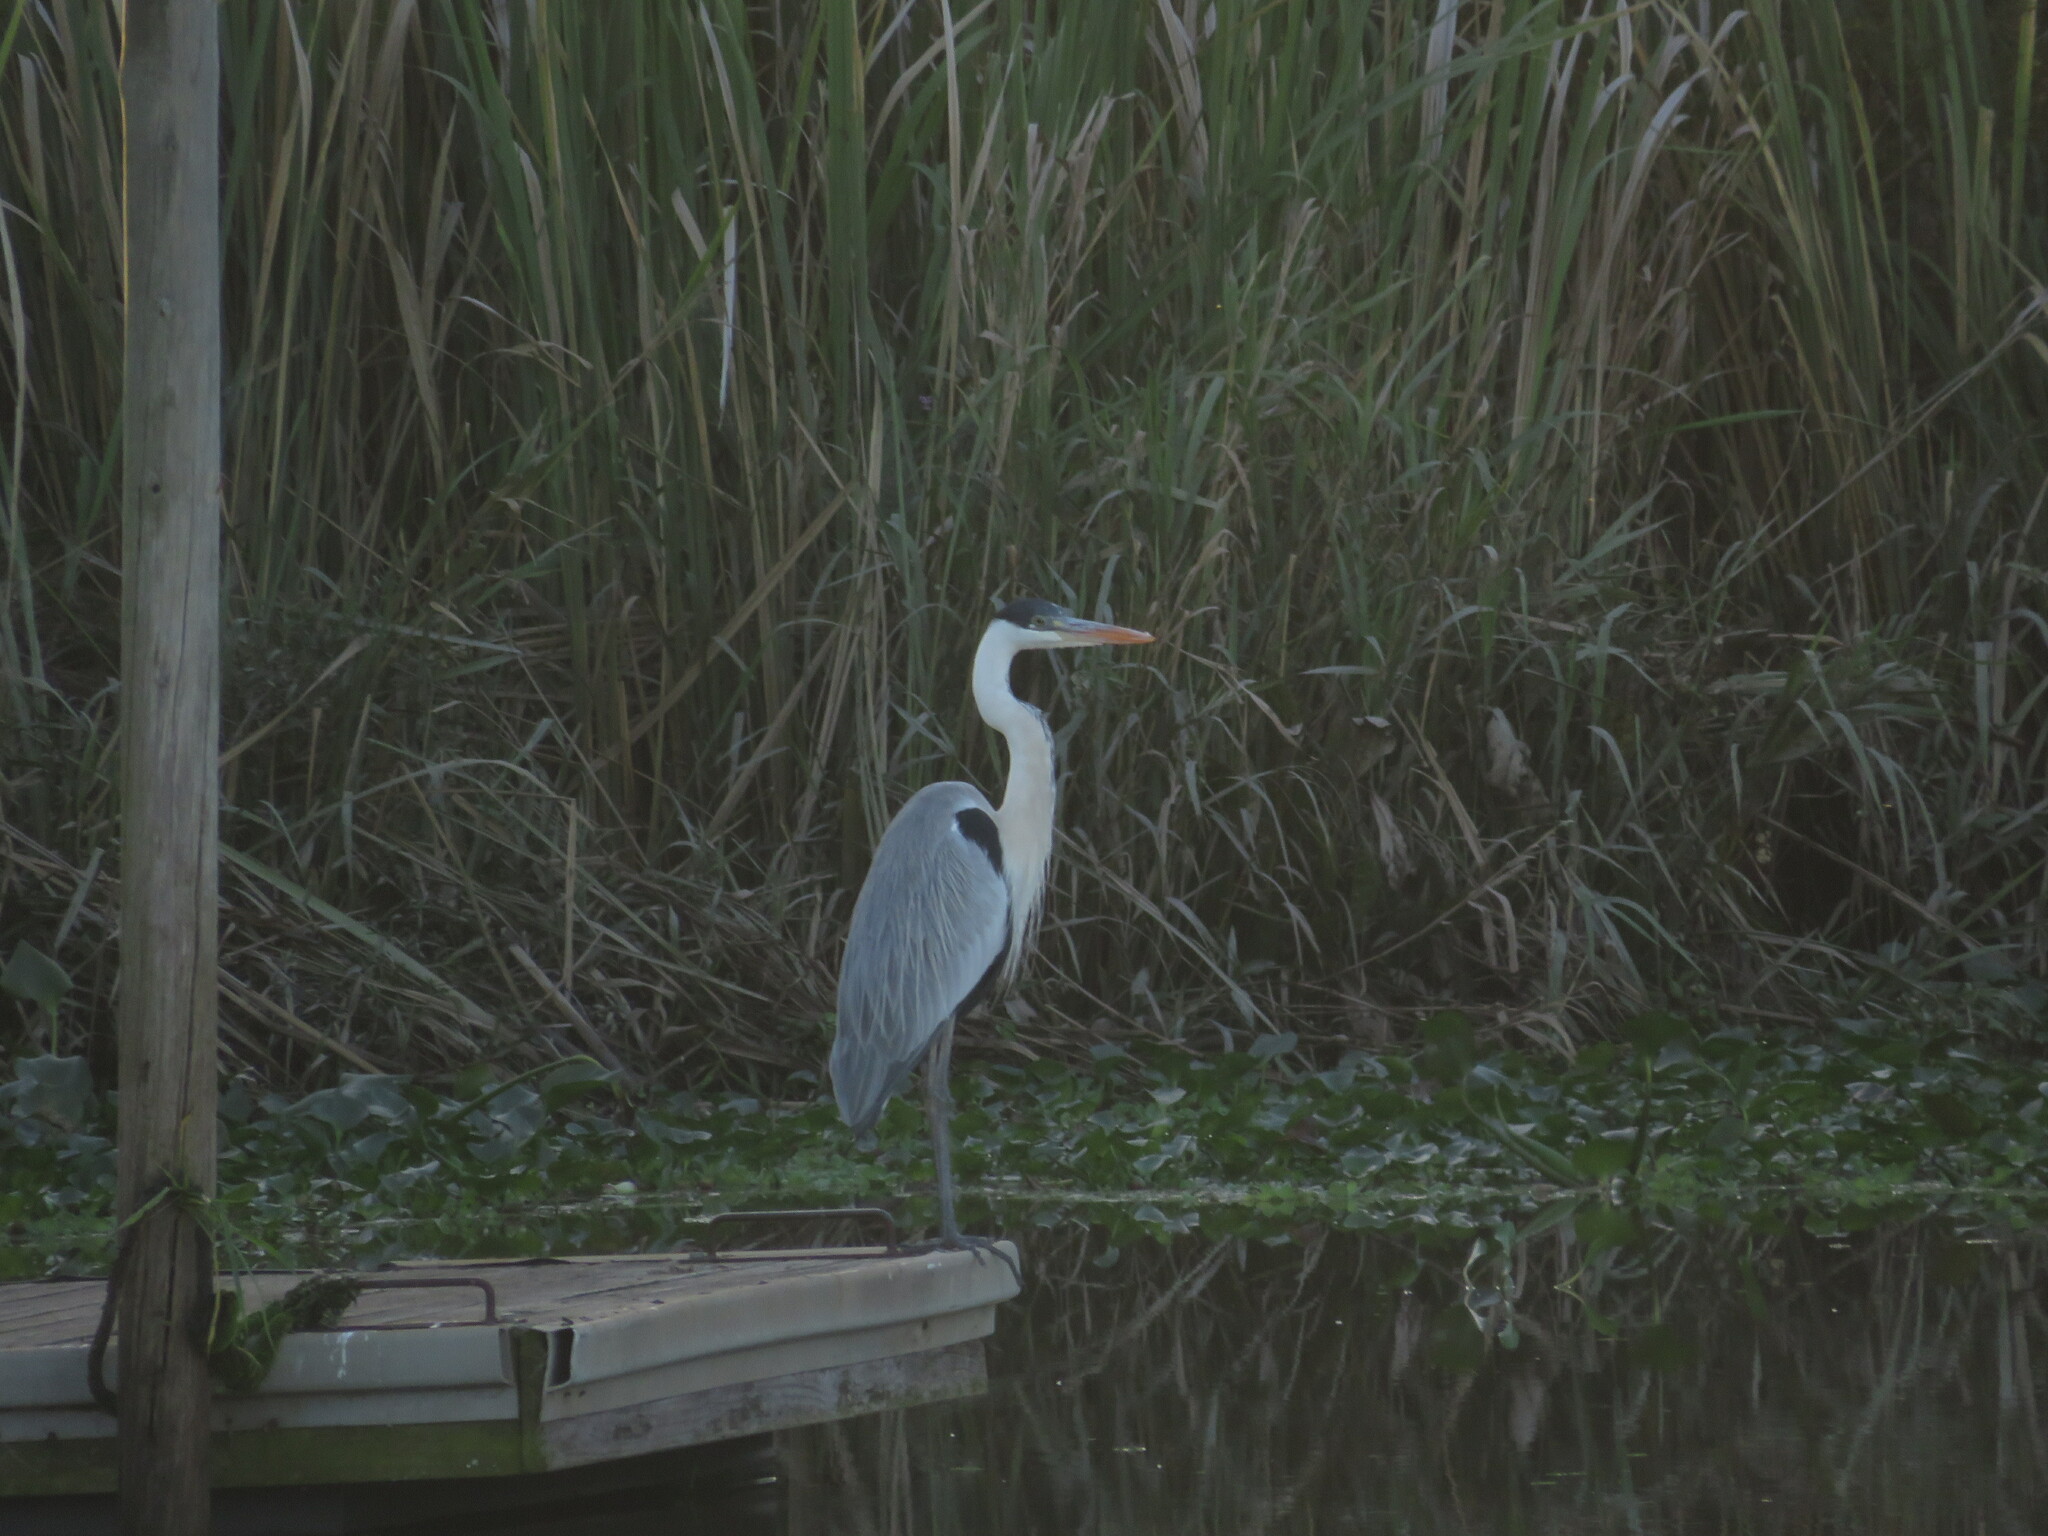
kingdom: Animalia
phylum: Chordata
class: Aves
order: Pelecaniformes
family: Ardeidae
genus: Ardea
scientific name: Ardea cocoi
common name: Cocoi heron
